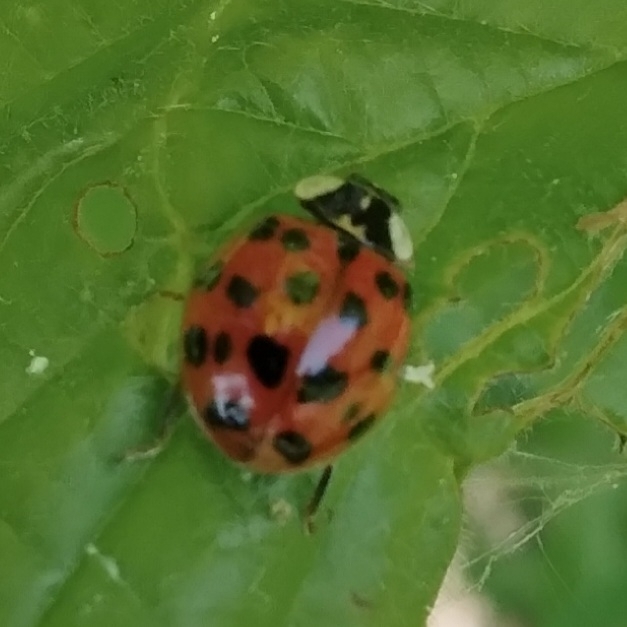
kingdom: Animalia
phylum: Arthropoda
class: Insecta
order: Coleoptera
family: Coccinellidae
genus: Harmonia
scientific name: Harmonia axyridis
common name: Harlequin ladybird
